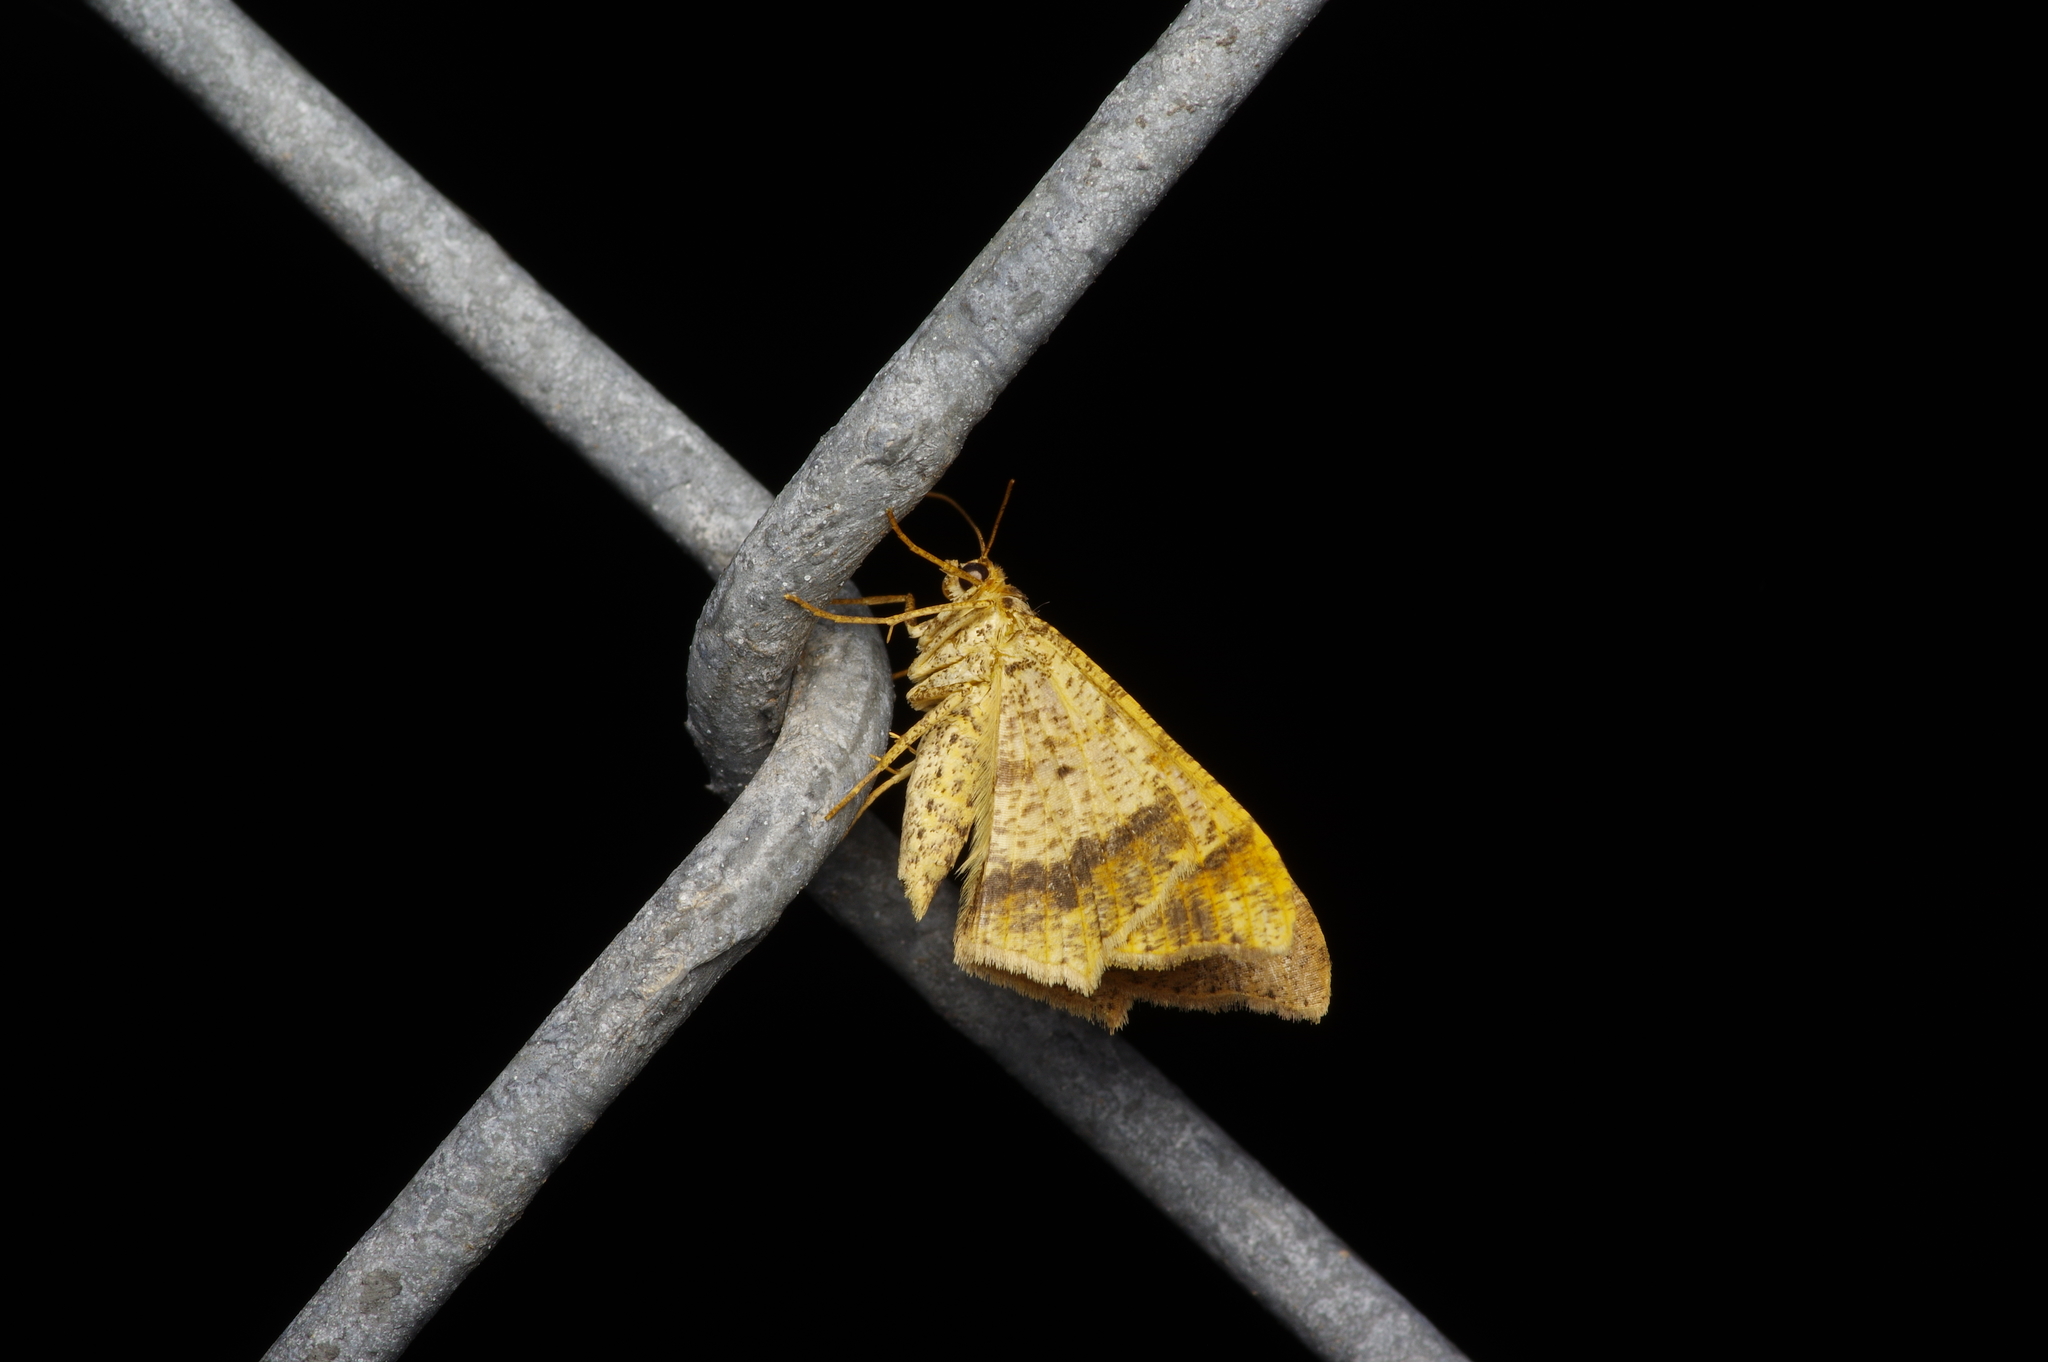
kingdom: Animalia
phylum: Arthropoda
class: Insecta
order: Lepidoptera
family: Geometridae
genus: Macaria
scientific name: Macaria abydata
